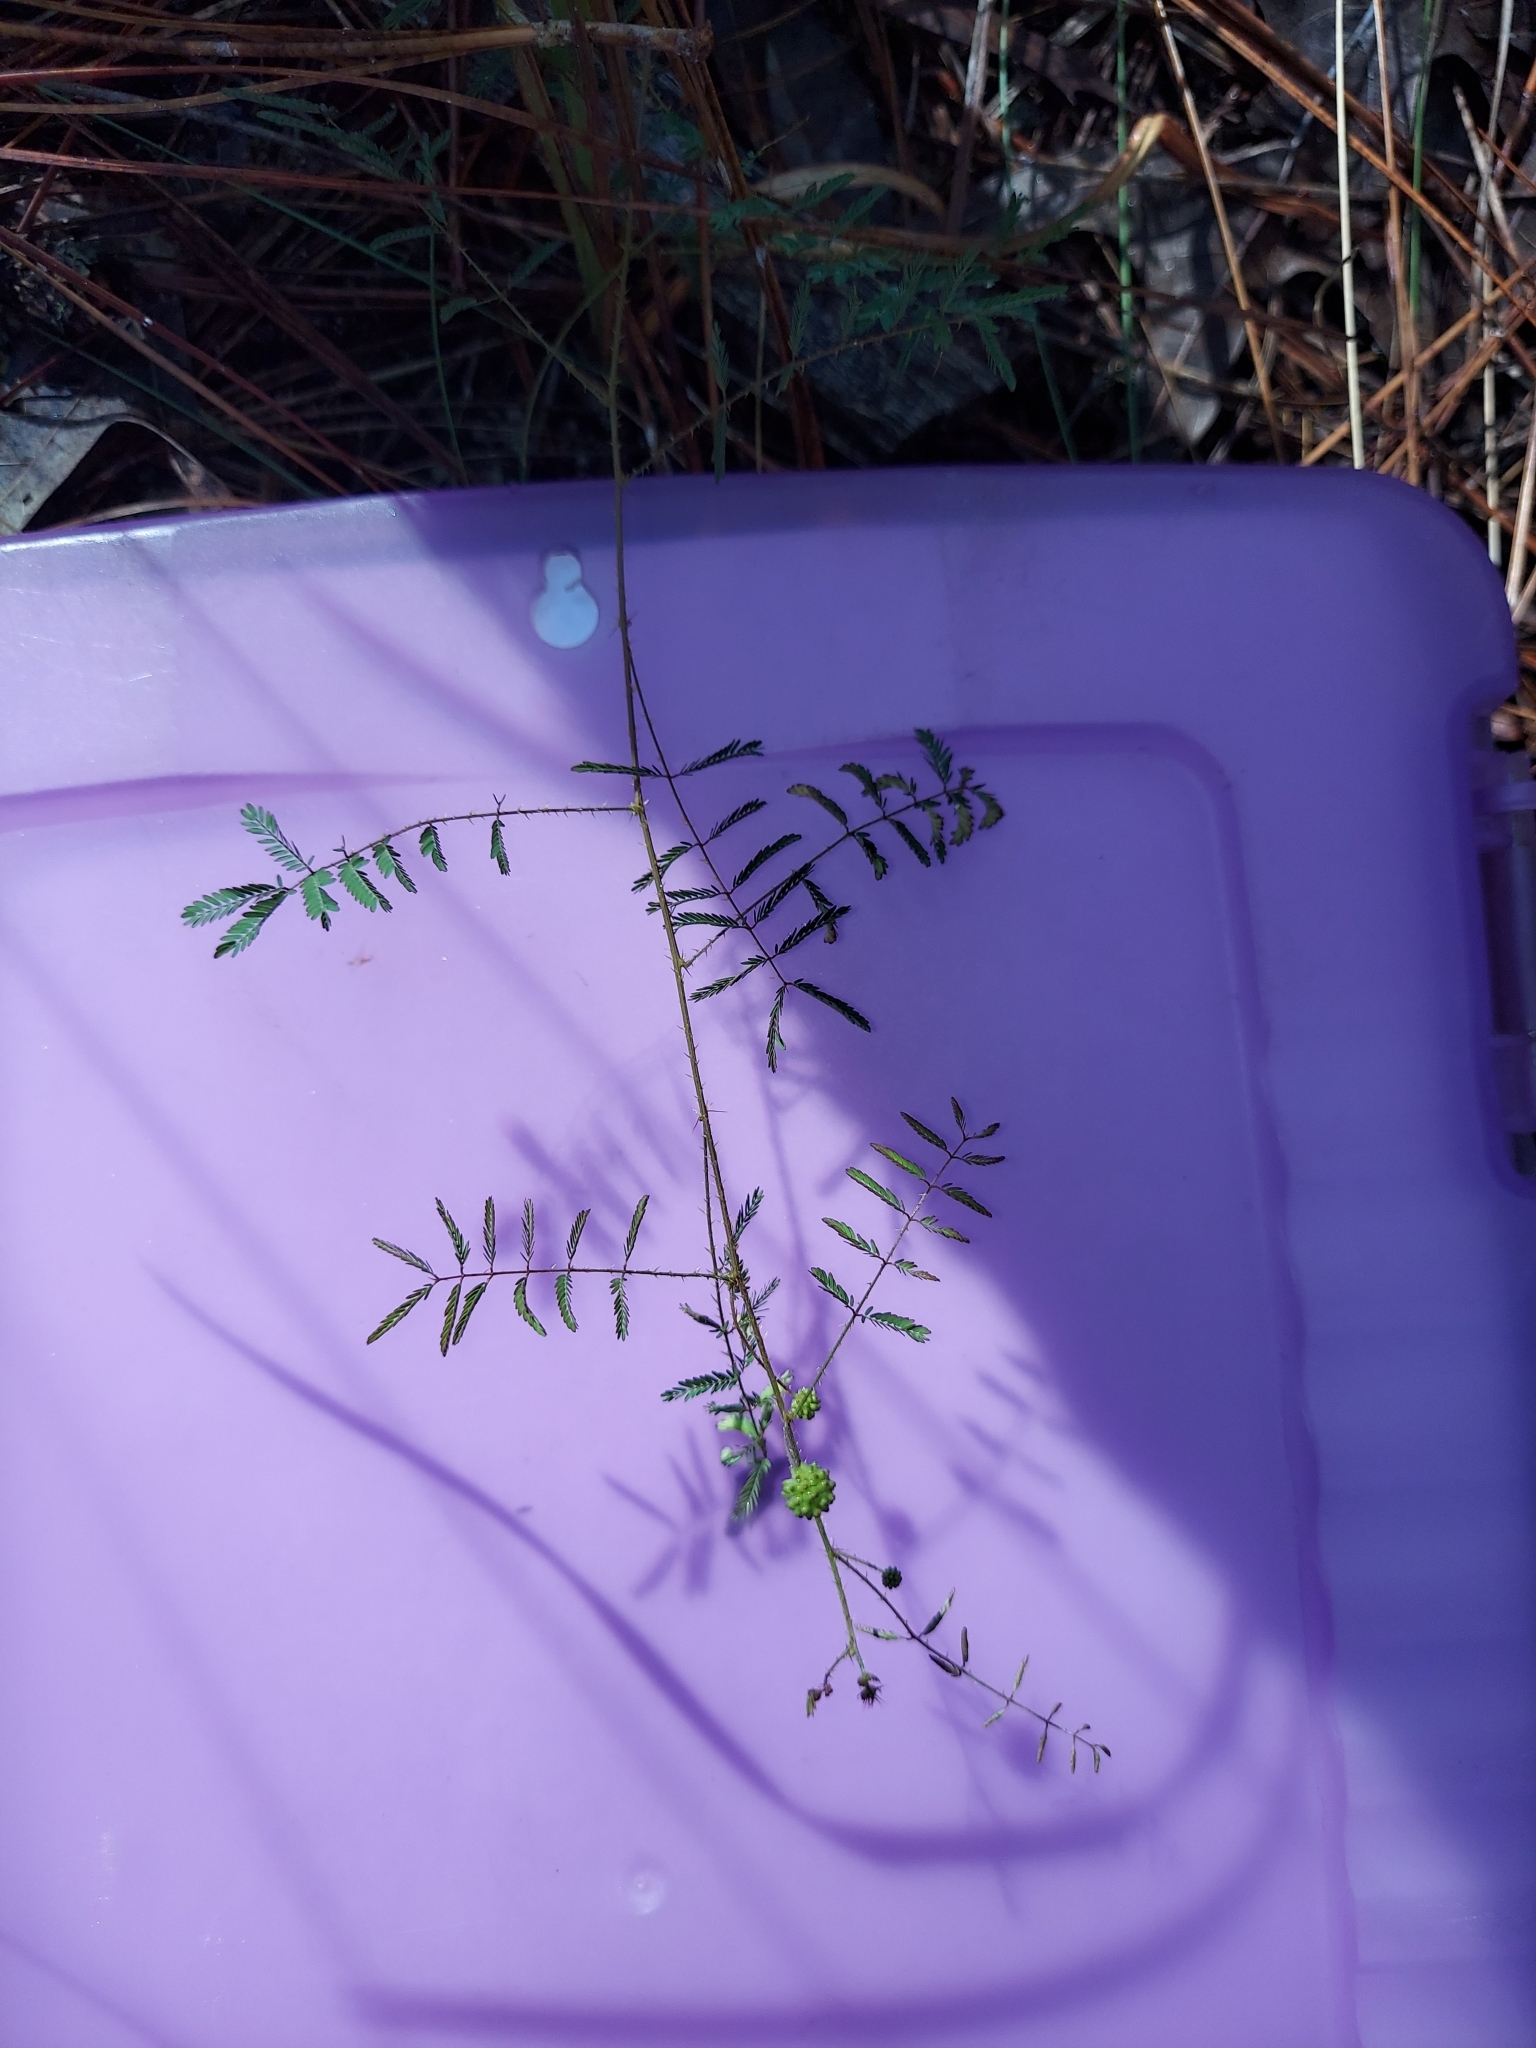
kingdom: Plantae
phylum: Tracheophyta
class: Magnoliopsida
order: Fabales
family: Fabaceae
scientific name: Fabaceae
